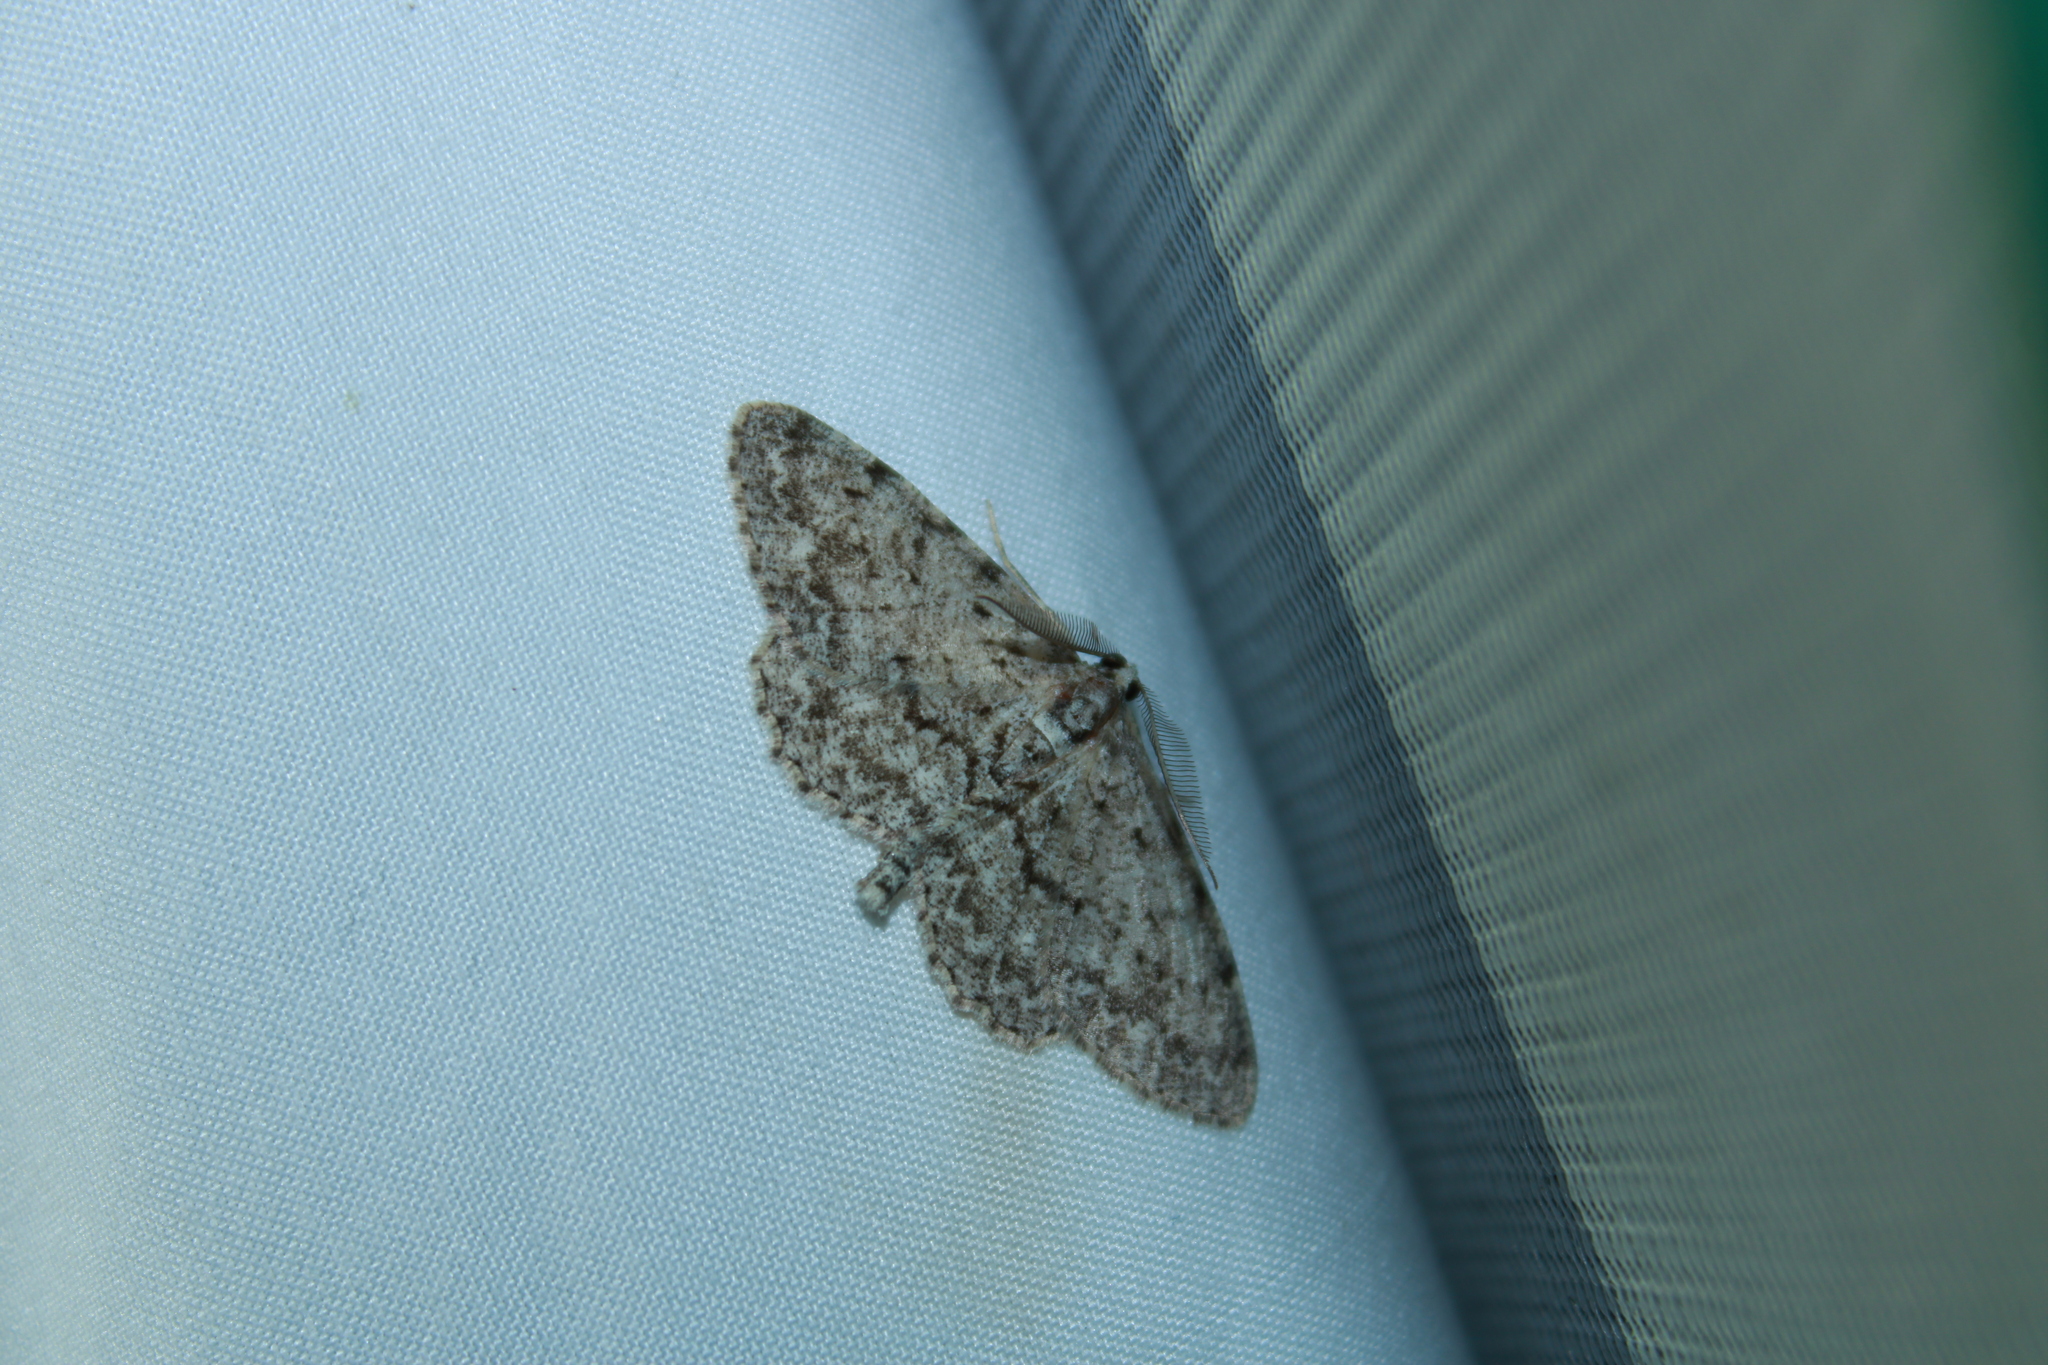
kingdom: Animalia
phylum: Arthropoda
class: Insecta
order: Lepidoptera
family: Geometridae
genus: Protoboarmia
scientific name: Protoboarmia porcelaria
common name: Porcelain gray
